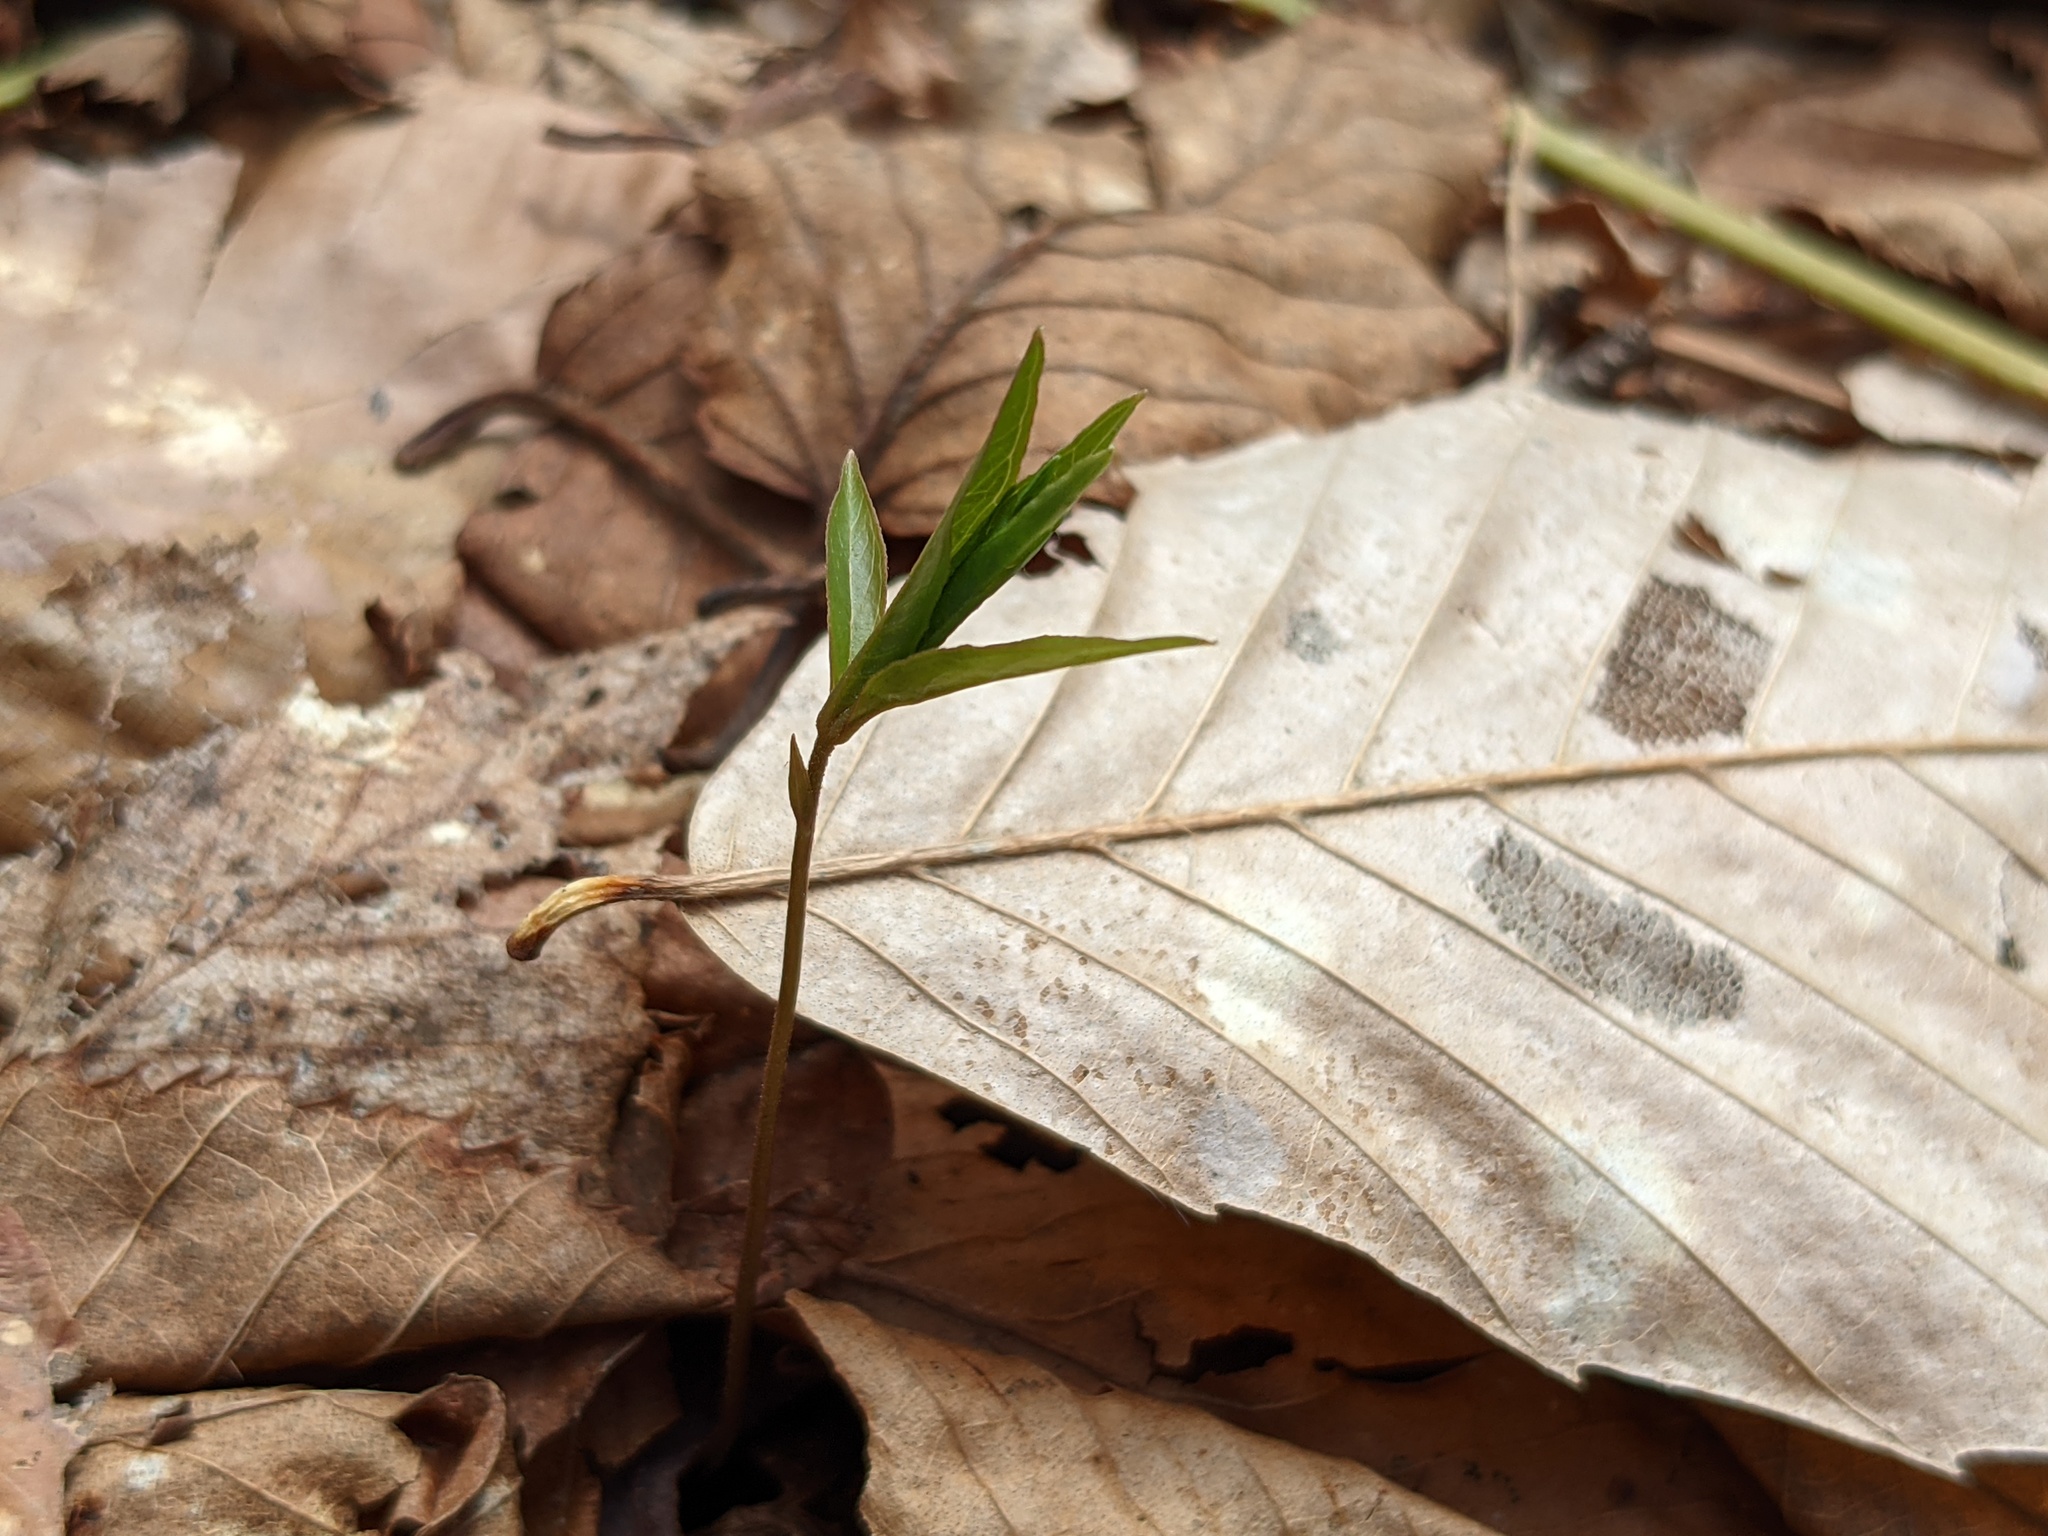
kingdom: Plantae
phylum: Tracheophyta
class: Magnoliopsida
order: Ericales
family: Primulaceae
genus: Lysimachia
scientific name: Lysimachia borealis
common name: American starflower
